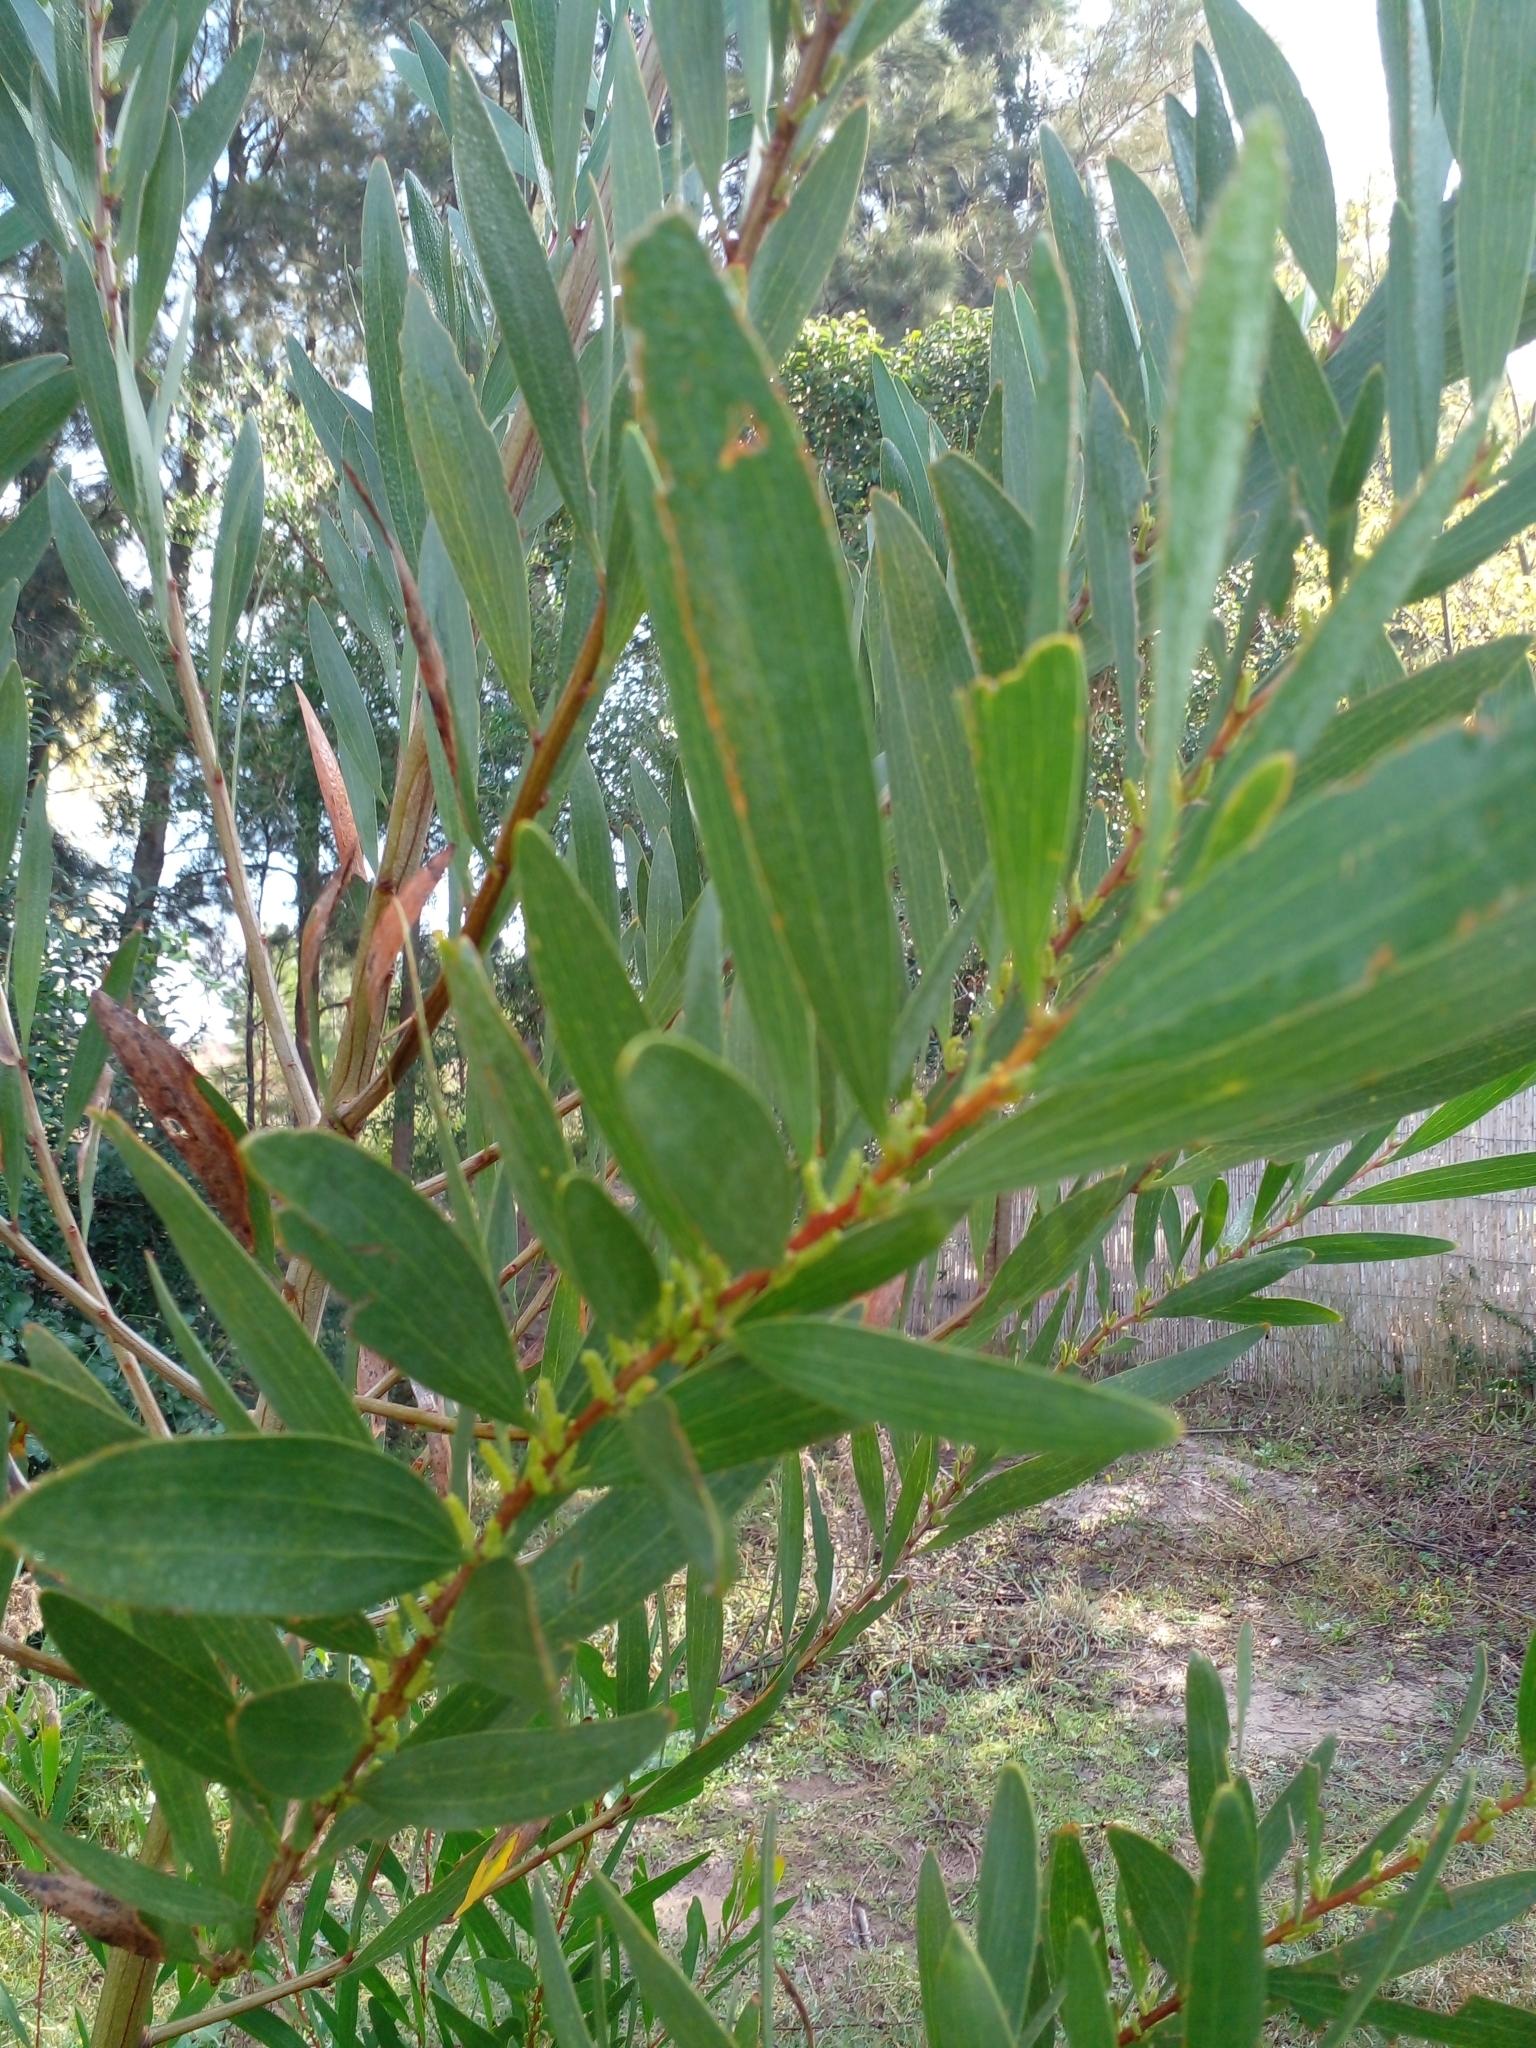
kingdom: Plantae
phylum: Tracheophyta
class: Magnoliopsida
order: Fabales
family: Fabaceae
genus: Acacia
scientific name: Acacia longifolia
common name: Sydney golden wattle
